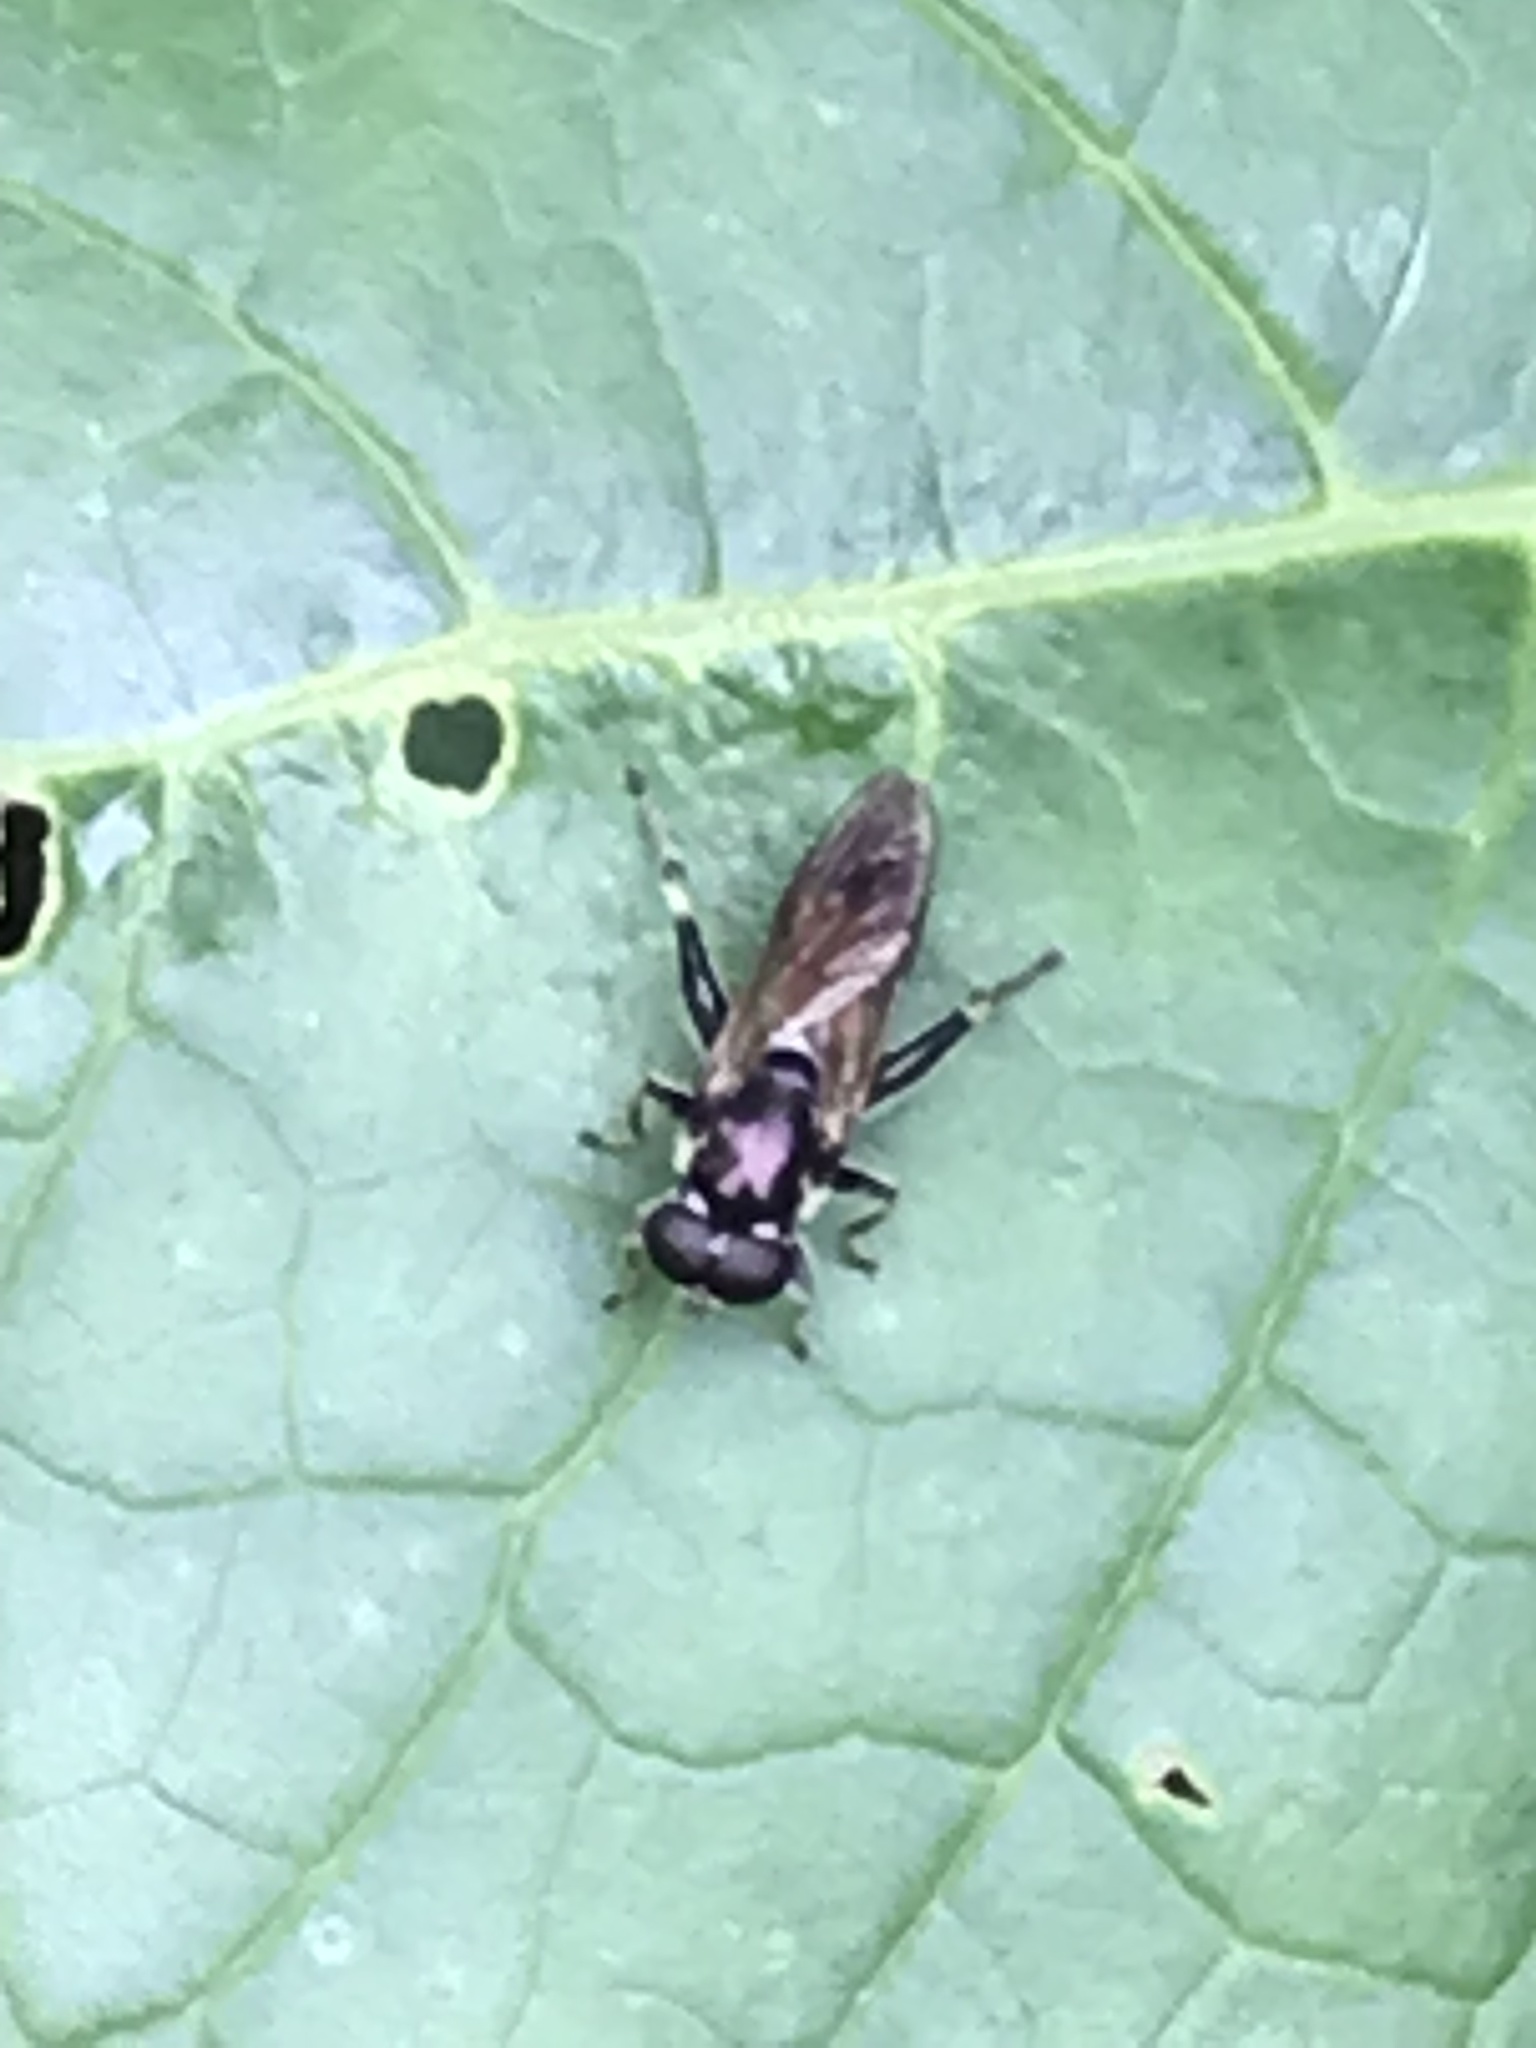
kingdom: Animalia
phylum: Arthropoda
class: Insecta
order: Diptera
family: Syrphidae
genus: Xylota
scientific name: Xylota
